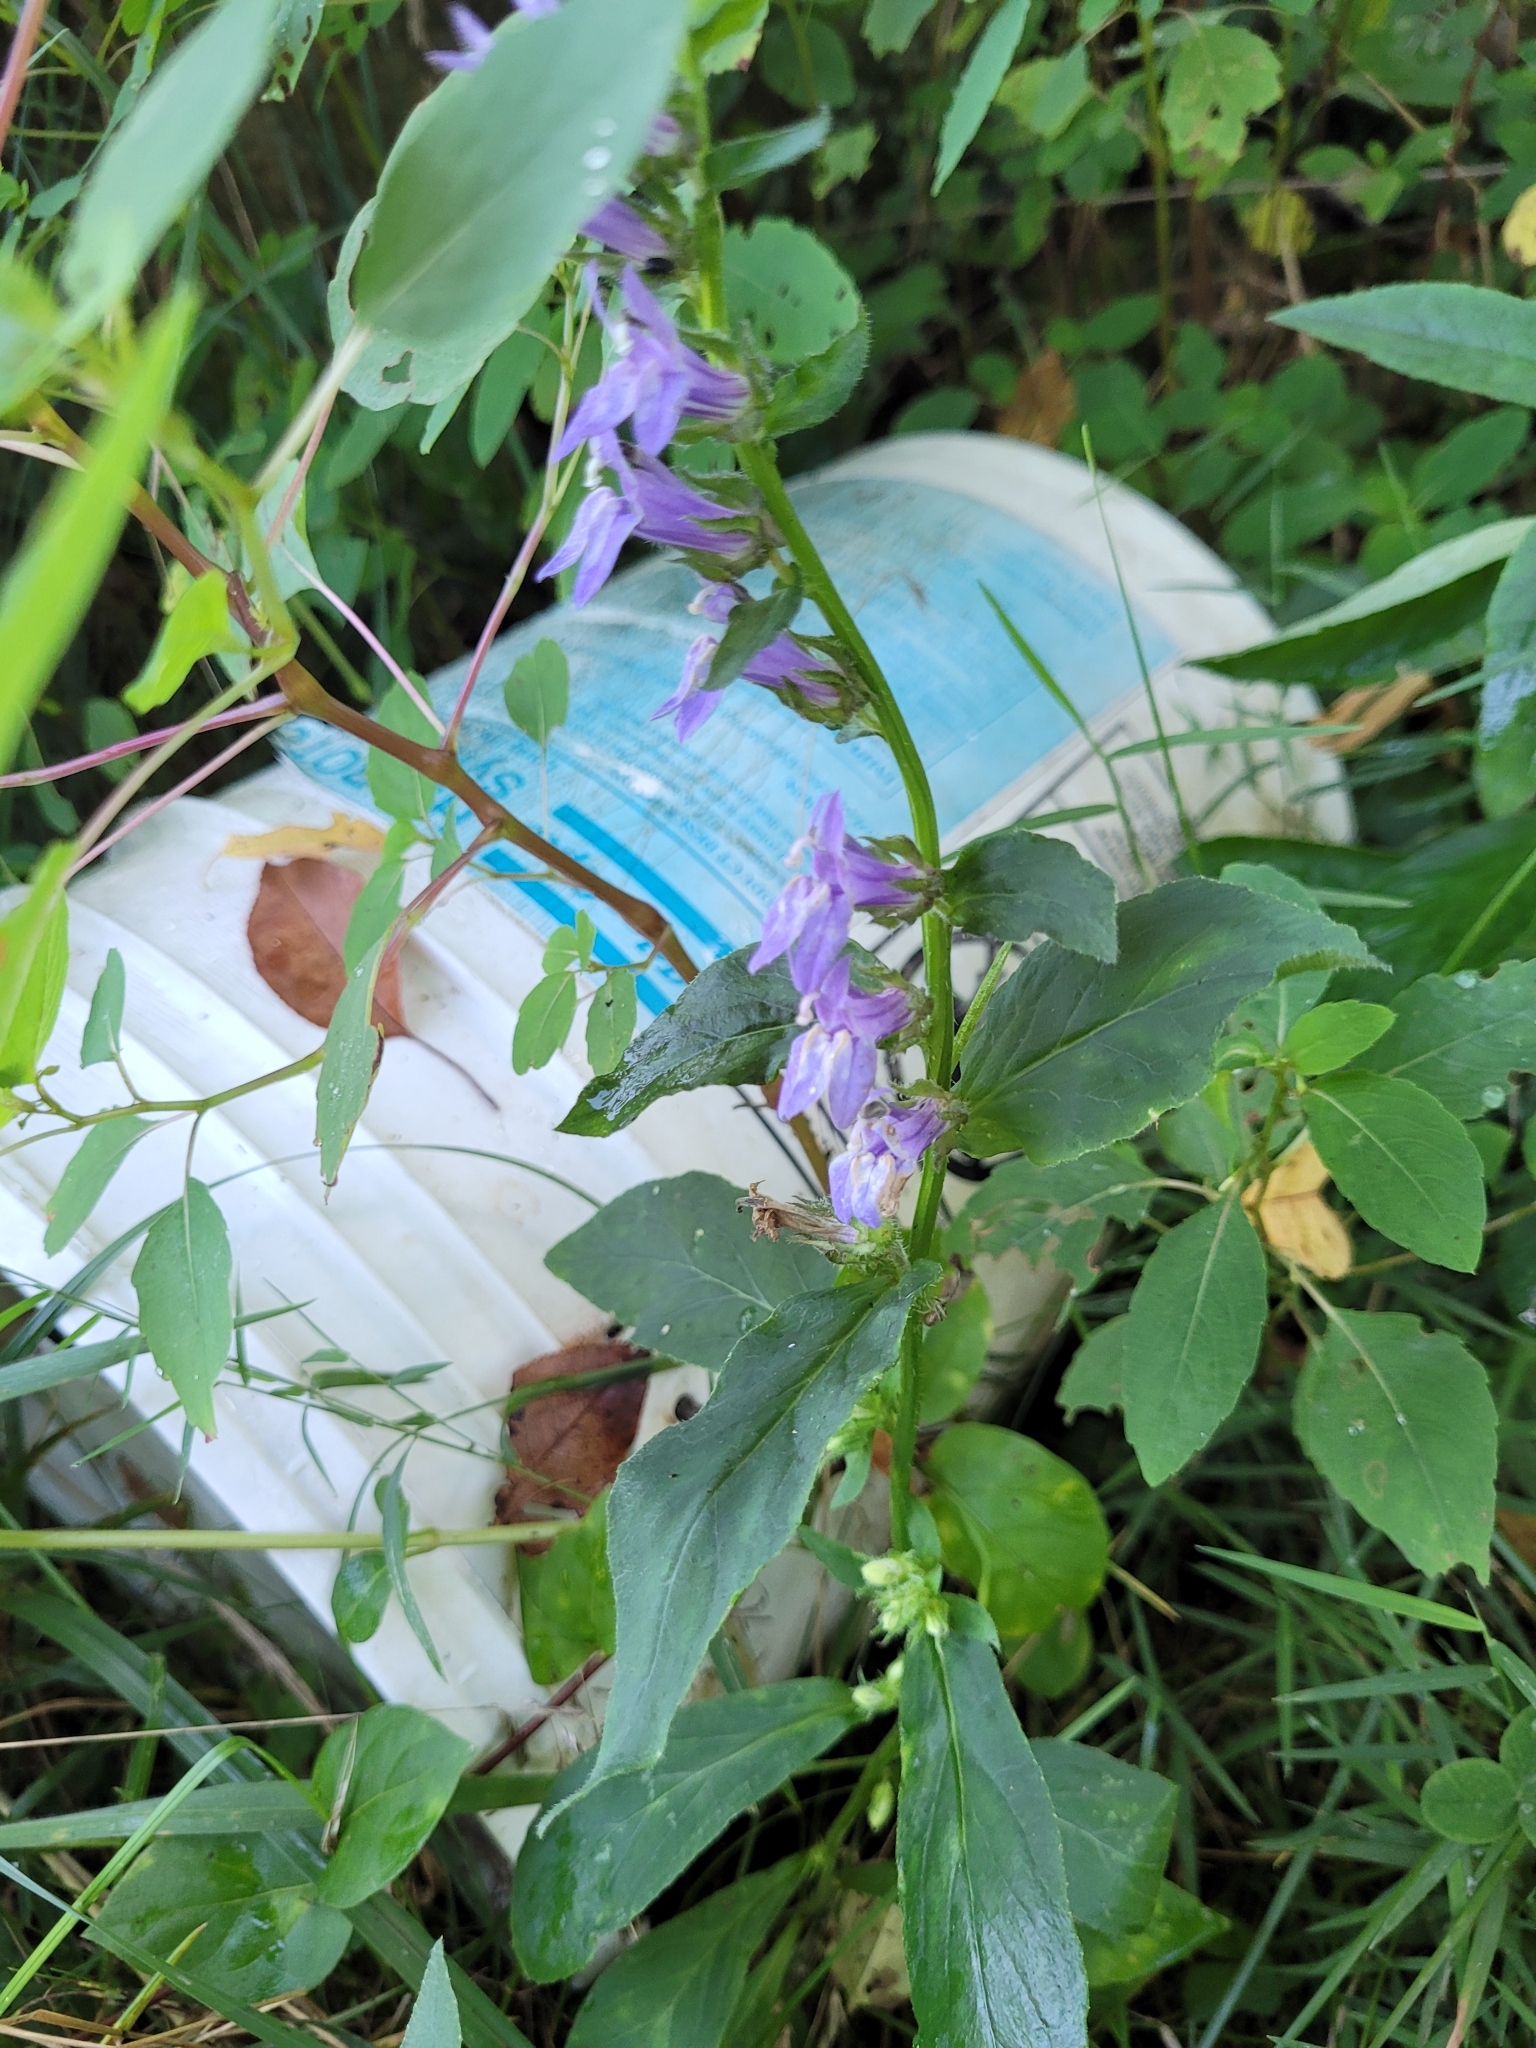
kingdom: Plantae
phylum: Tracheophyta
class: Magnoliopsida
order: Asterales
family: Campanulaceae
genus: Lobelia
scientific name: Lobelia siphilitica
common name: Great lobelia
